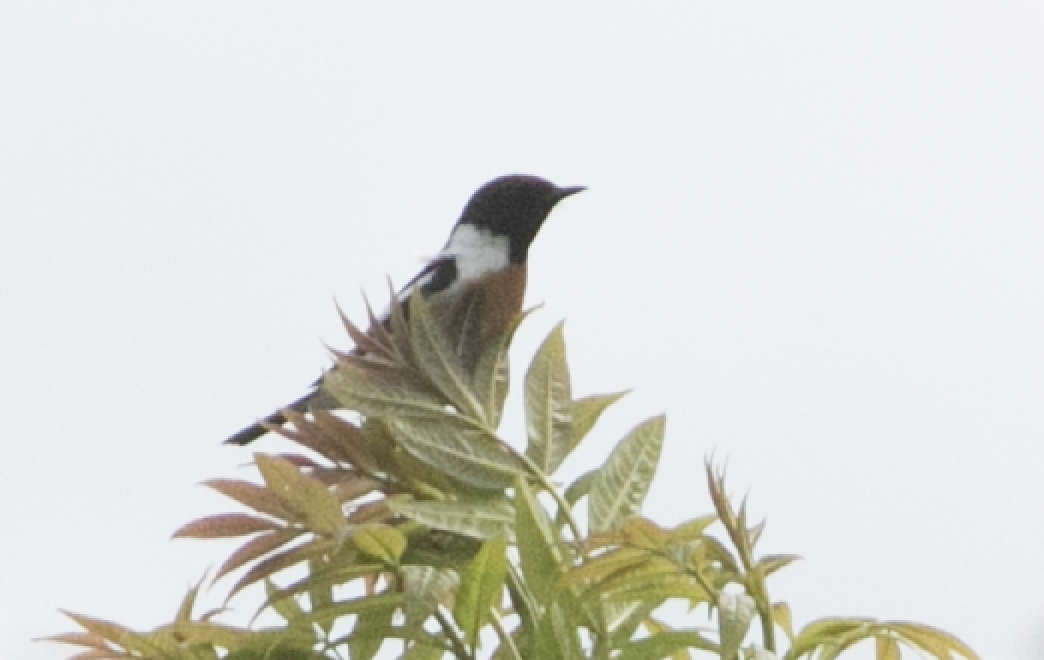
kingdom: Animalia
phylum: Chordata
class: Aves
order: Passeriformes
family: Muscicapidae
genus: Saxicola
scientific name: Saxicola rubicola
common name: European stonechat
